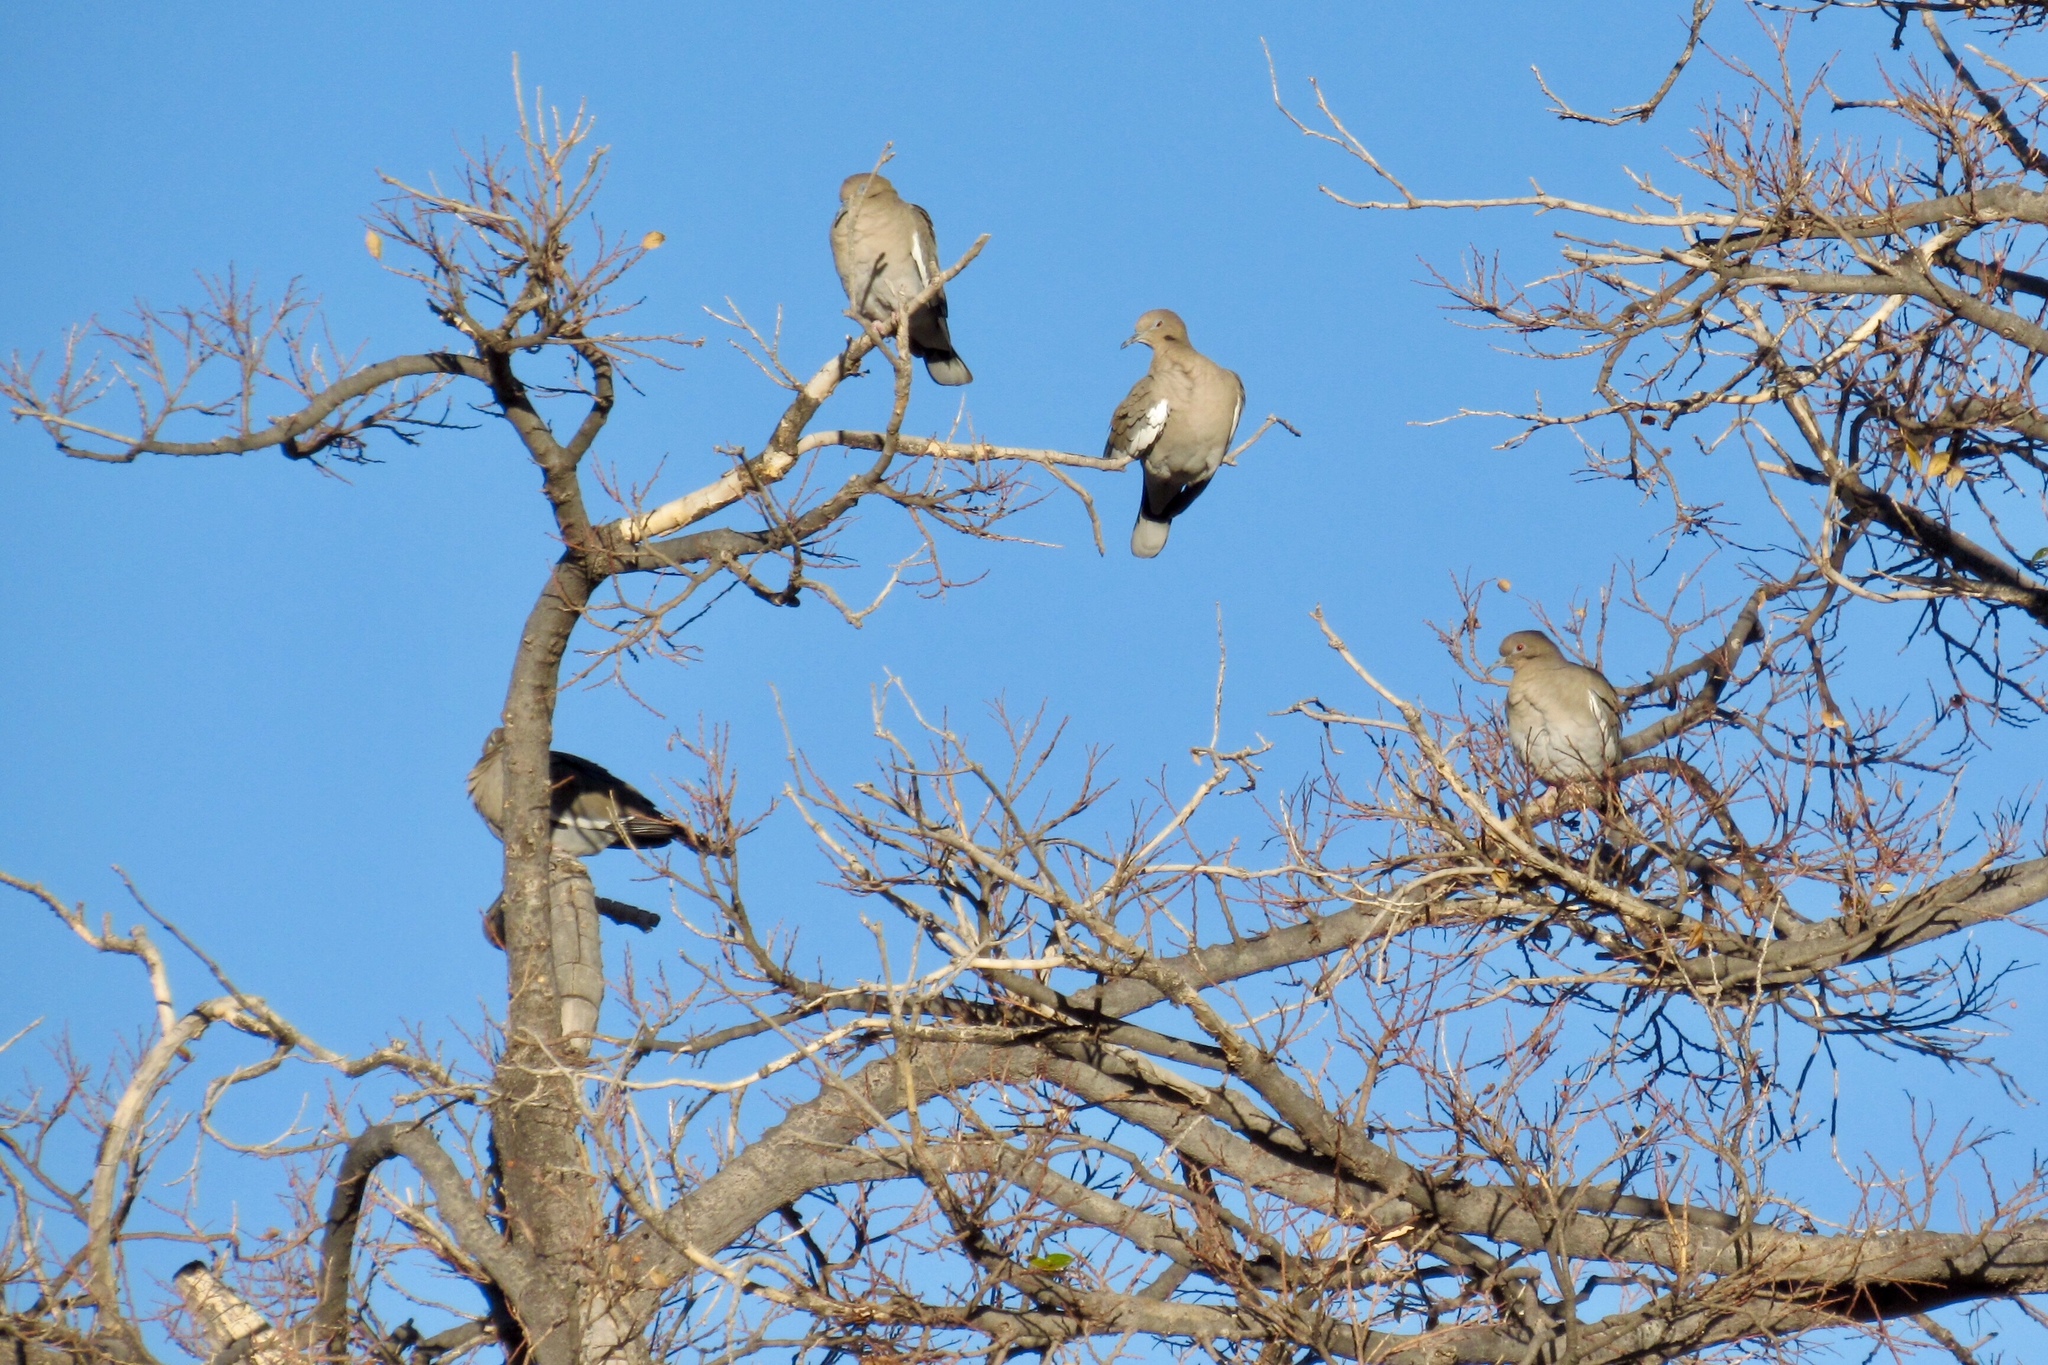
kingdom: Animalia
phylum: Chordata
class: Aves
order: Columbiformes
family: Columbidae
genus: Zenaida
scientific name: Zenaida asiatica
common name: White-winged dove
